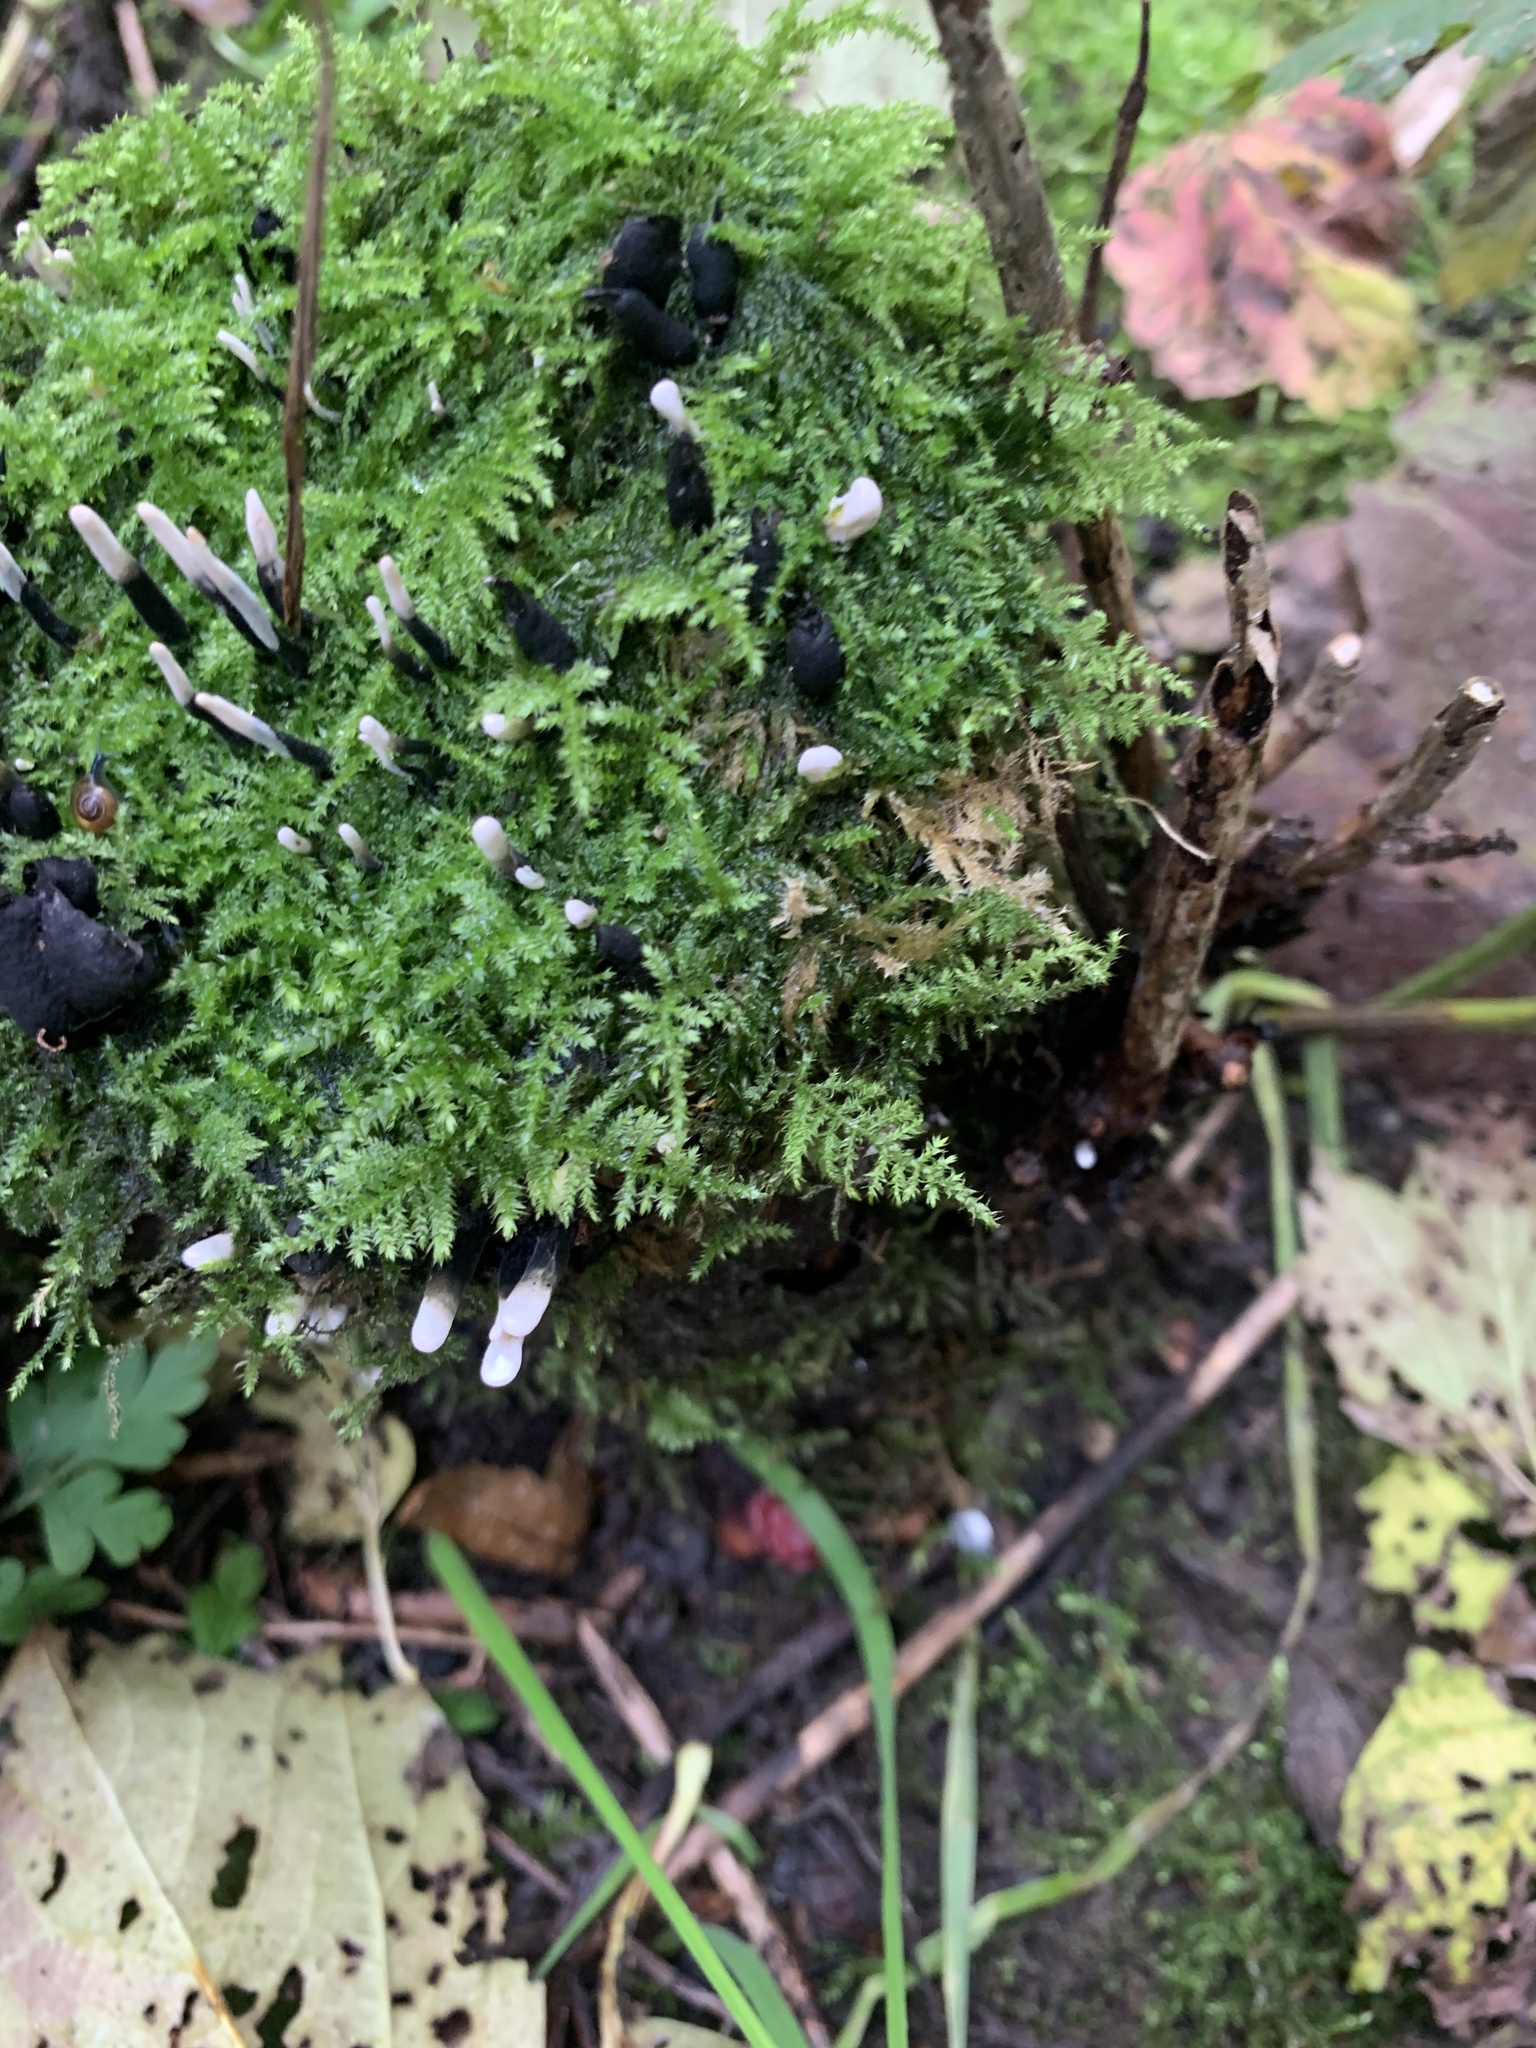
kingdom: Fungi
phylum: Ascomycota
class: Sordariomycetes
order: Xylariales
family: Xylariaceae
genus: Xylaria
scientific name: Xylaria hypoxylon
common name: Candle-snuff fungus
